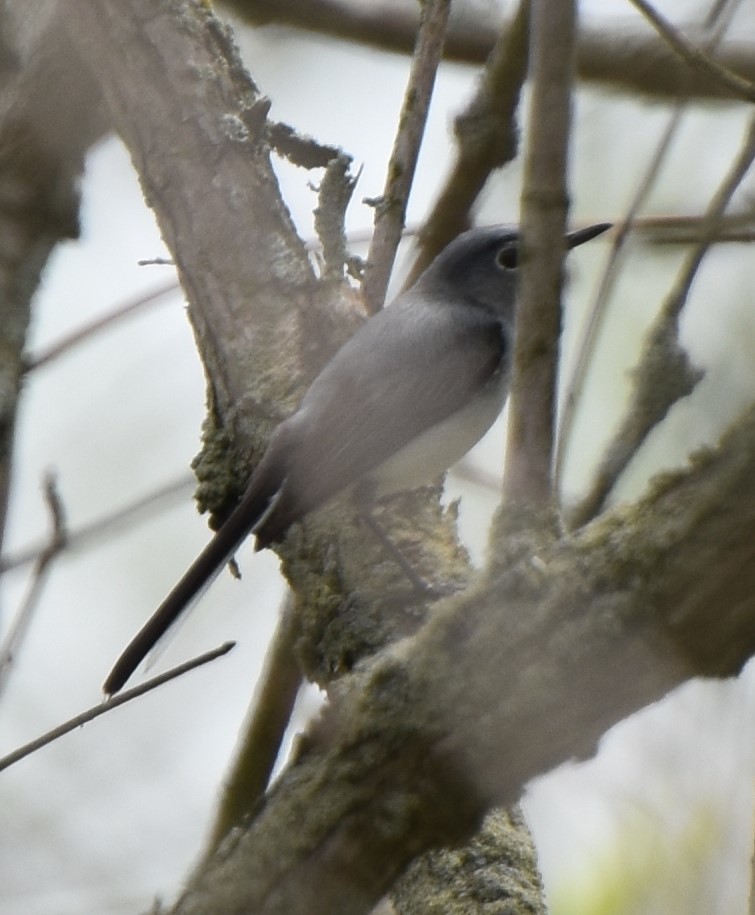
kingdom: Animalia
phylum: Chordata
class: Aves
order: Passeriformes
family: Polioptilidae
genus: Polioptila
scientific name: Polioptila caerulea
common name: Blue-gray gnatcatcher
